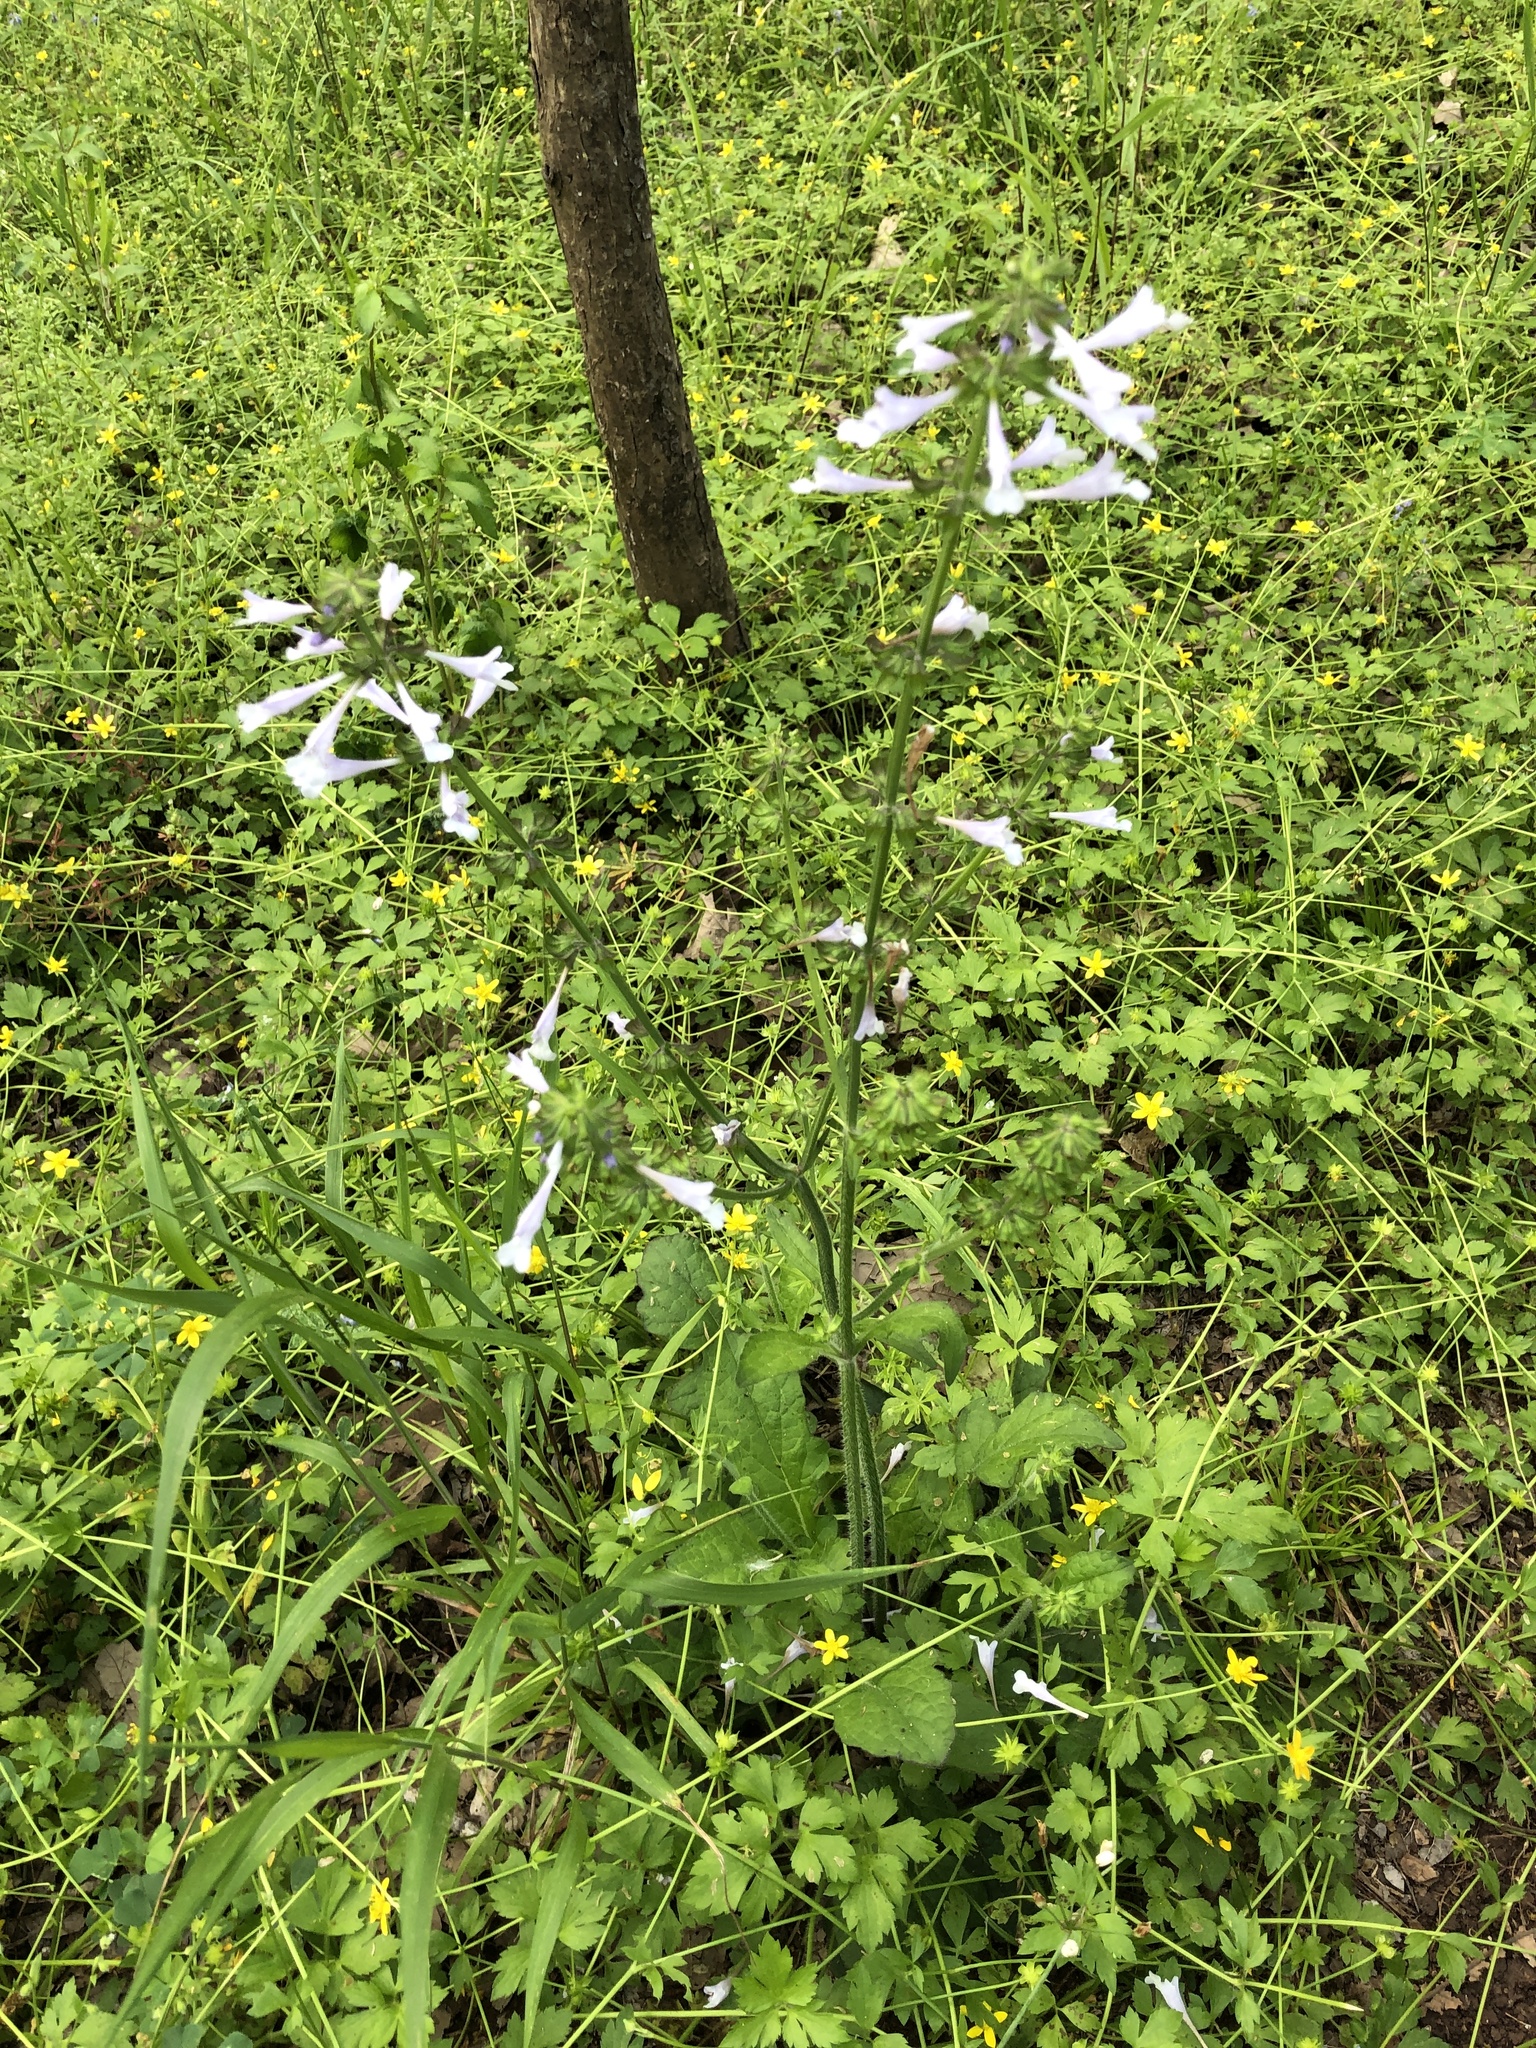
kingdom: Plantae
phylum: Tracheophyta
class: Magnoliopsida
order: Lamiales
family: Lamiaceae
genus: Salvia
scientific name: Salvia lyrata
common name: Cancerweed
